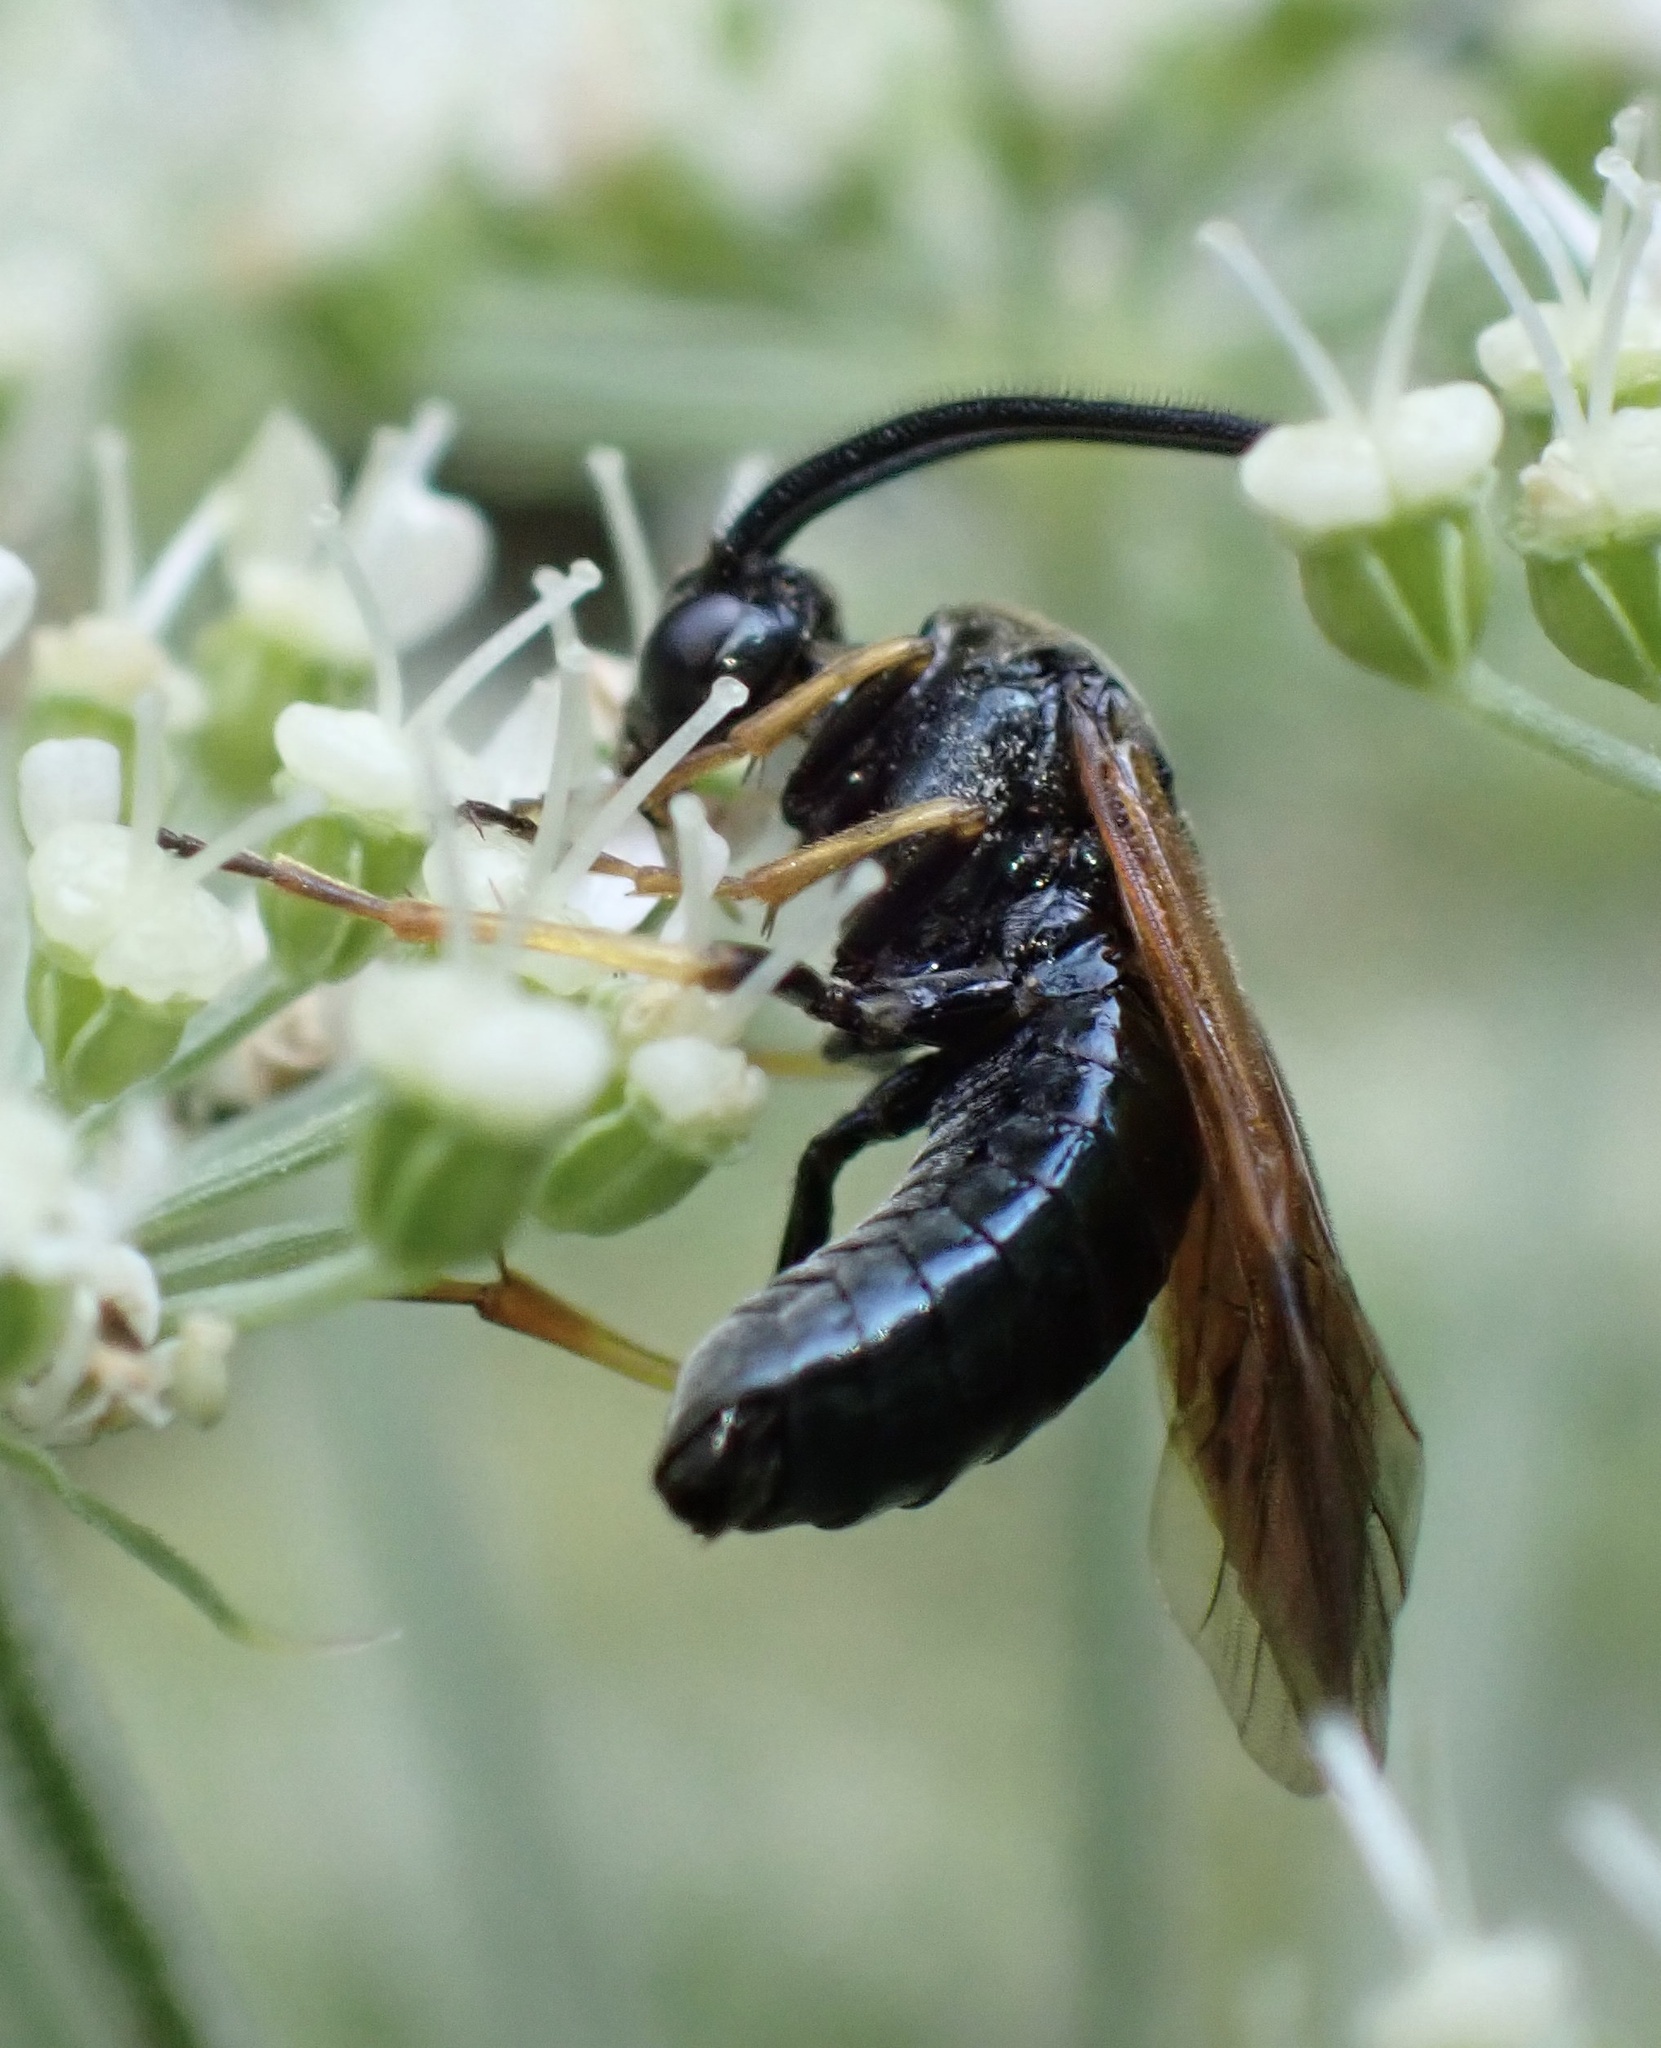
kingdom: Animalia
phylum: Arthropoda
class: Insecta
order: Hymenoptera
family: Argidae
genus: Arge
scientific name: Arge ustulata
